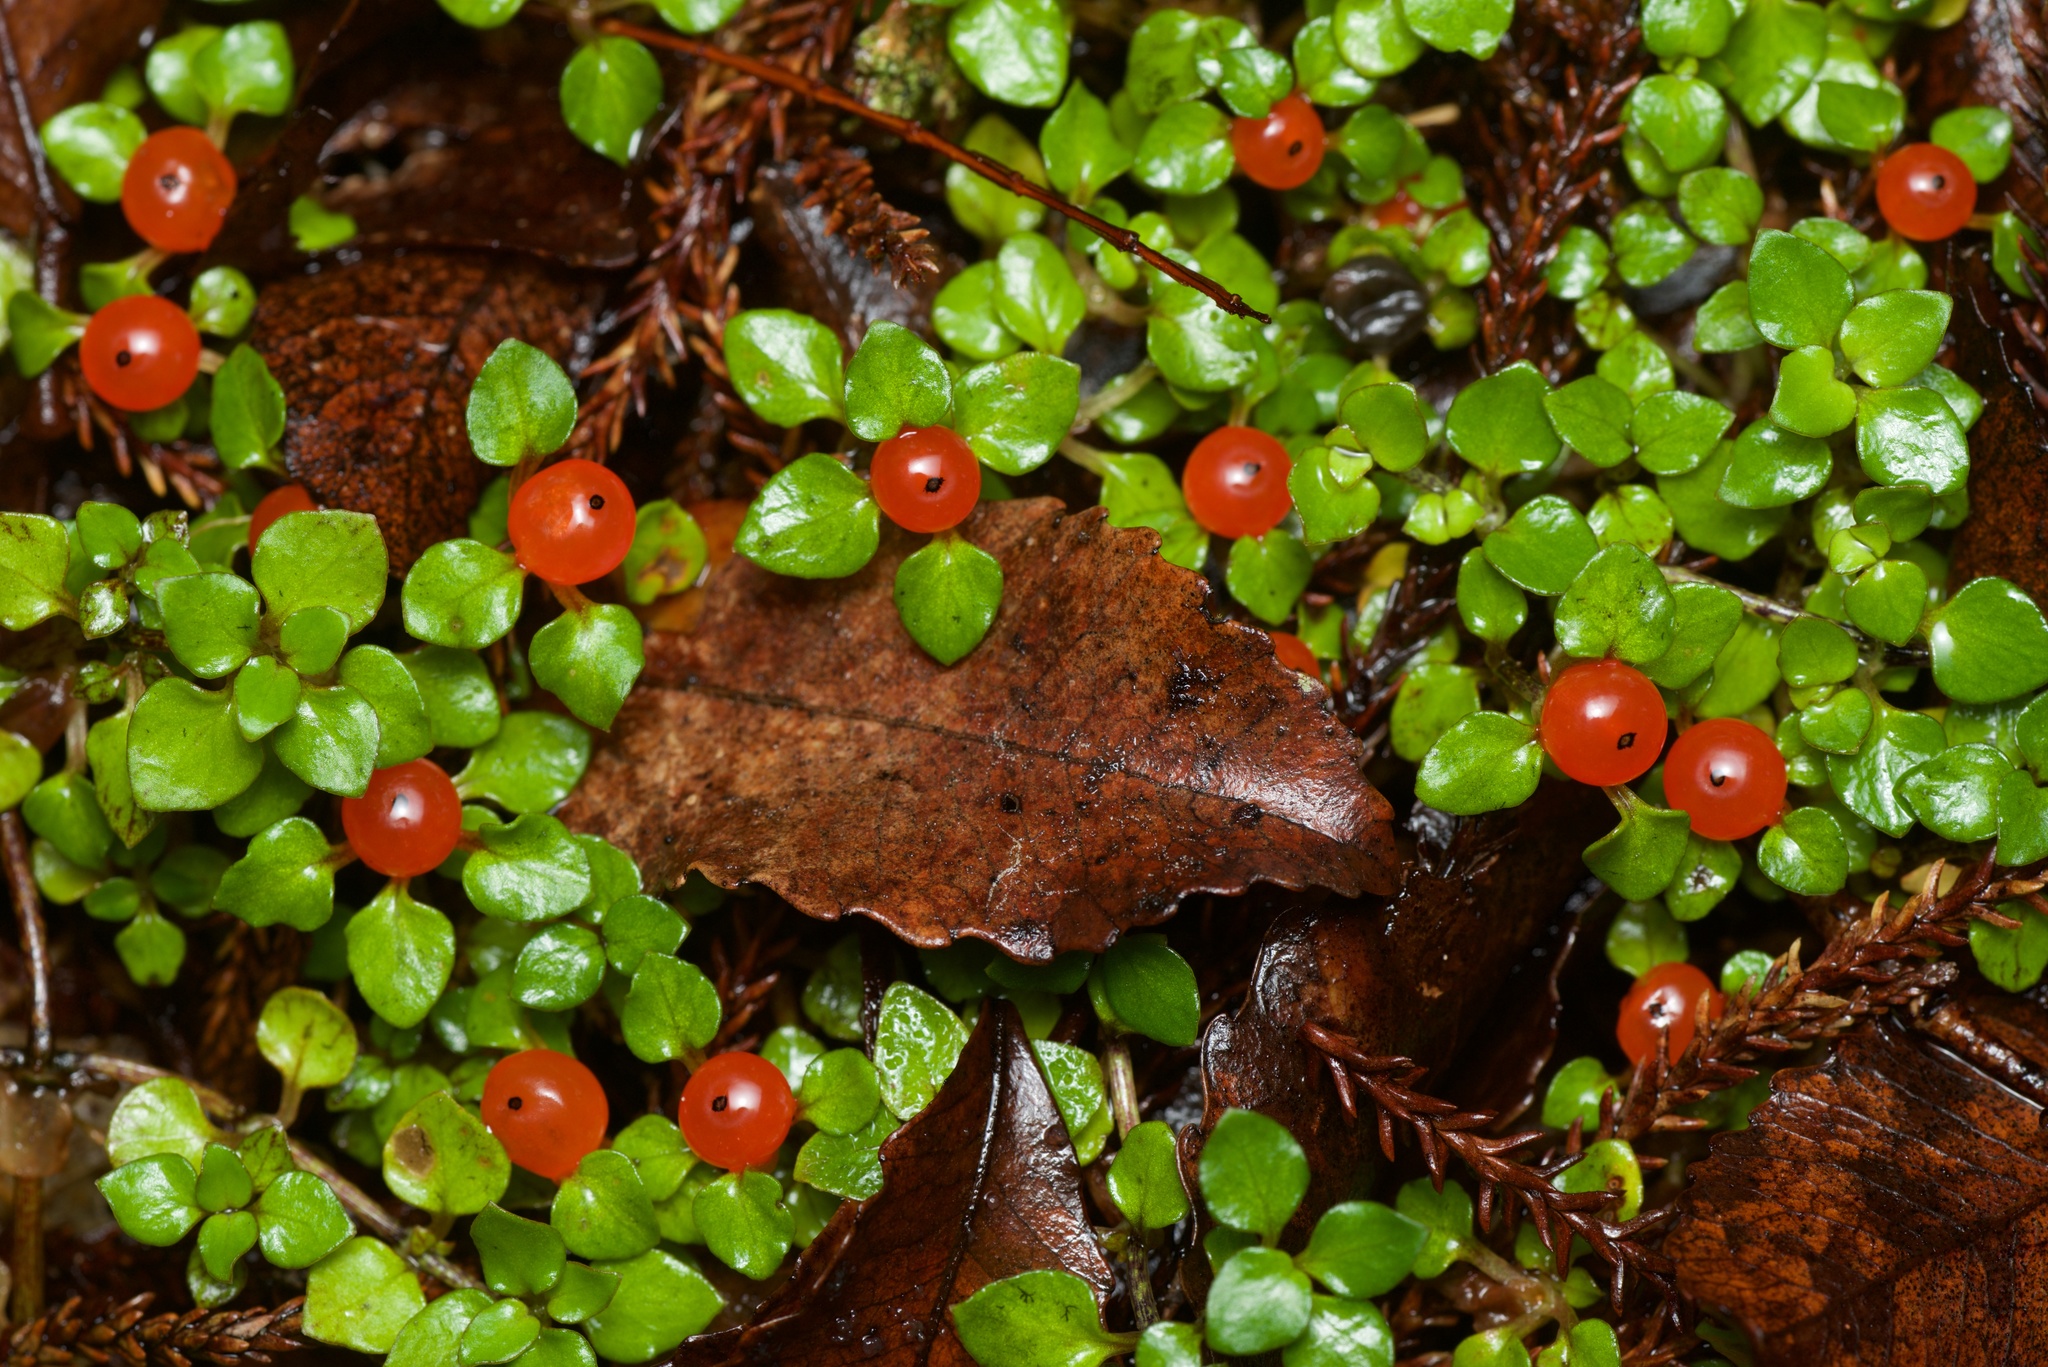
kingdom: Plantae
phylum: Tracheophyta
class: Magnoliopsida
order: Gentianales
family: Rubiaceae
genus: Nertera
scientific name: Nertera granadensis
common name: Beadplant
